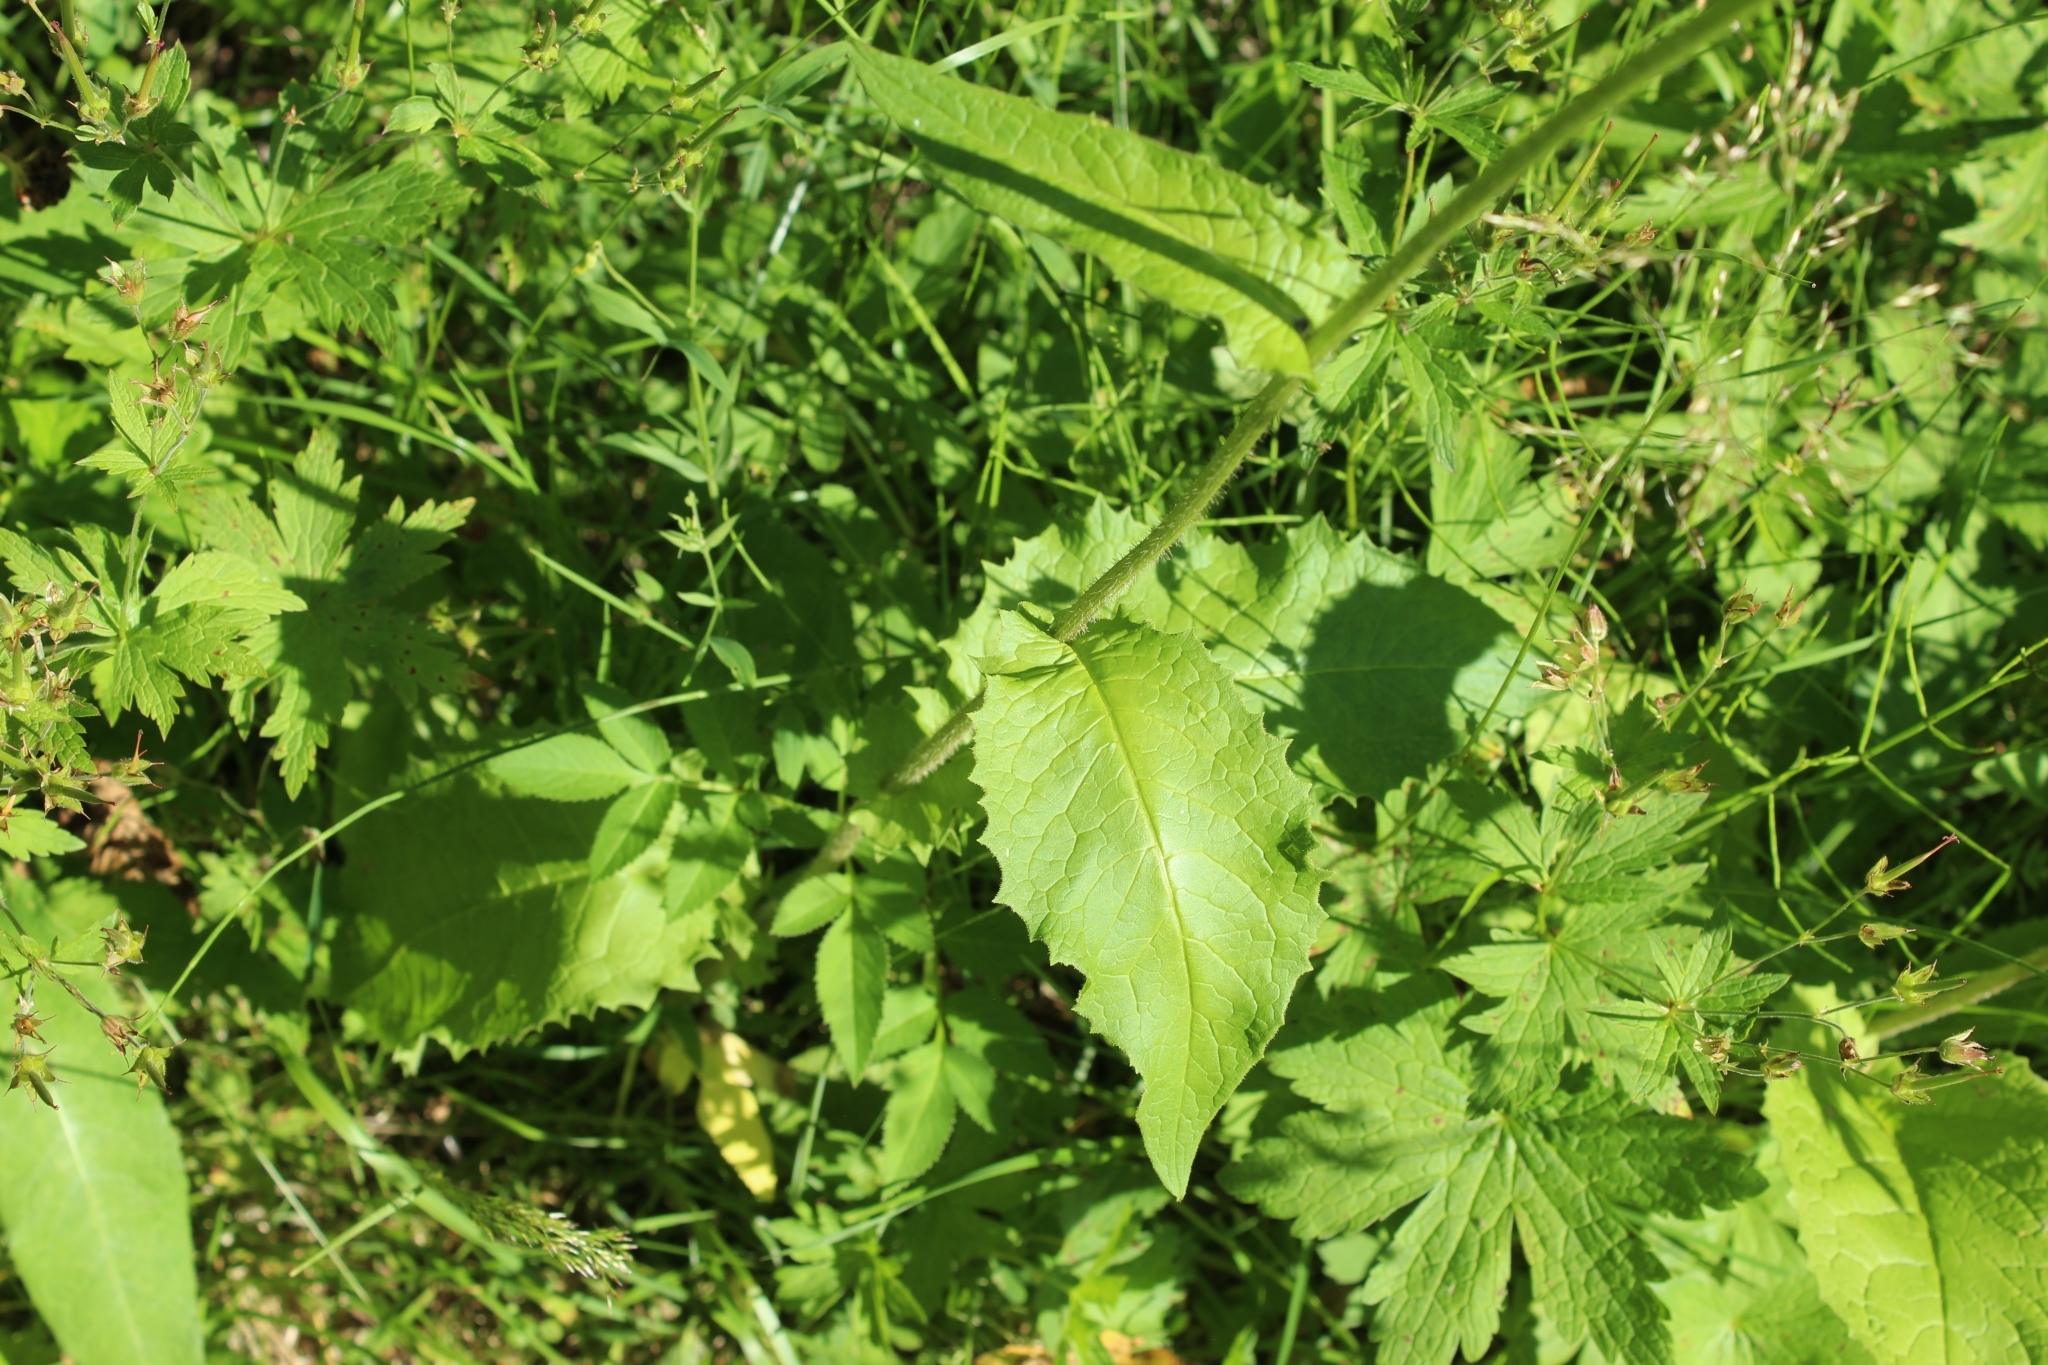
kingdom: Plantae
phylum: Tracheophyta
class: Magnoliopsida
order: Asterales
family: Asteraceae
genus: Crepis
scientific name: Crepis sibirica
